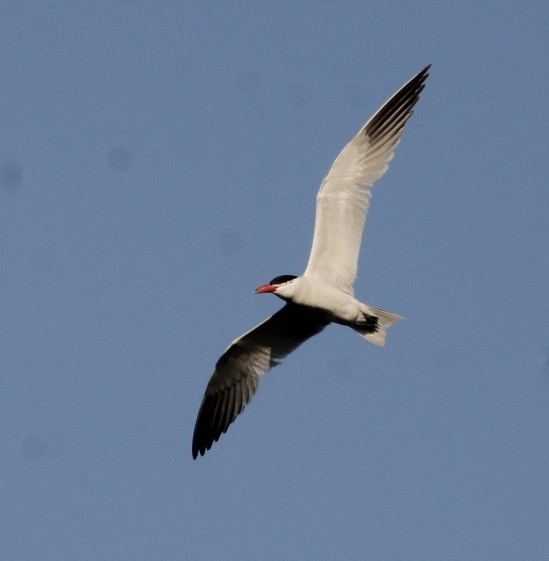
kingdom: Animalia
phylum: Chordata
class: Aves
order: Charadriiformes
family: Laridae
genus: Hydroprogne
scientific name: Hydroprogne caspia
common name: Caspian tern
